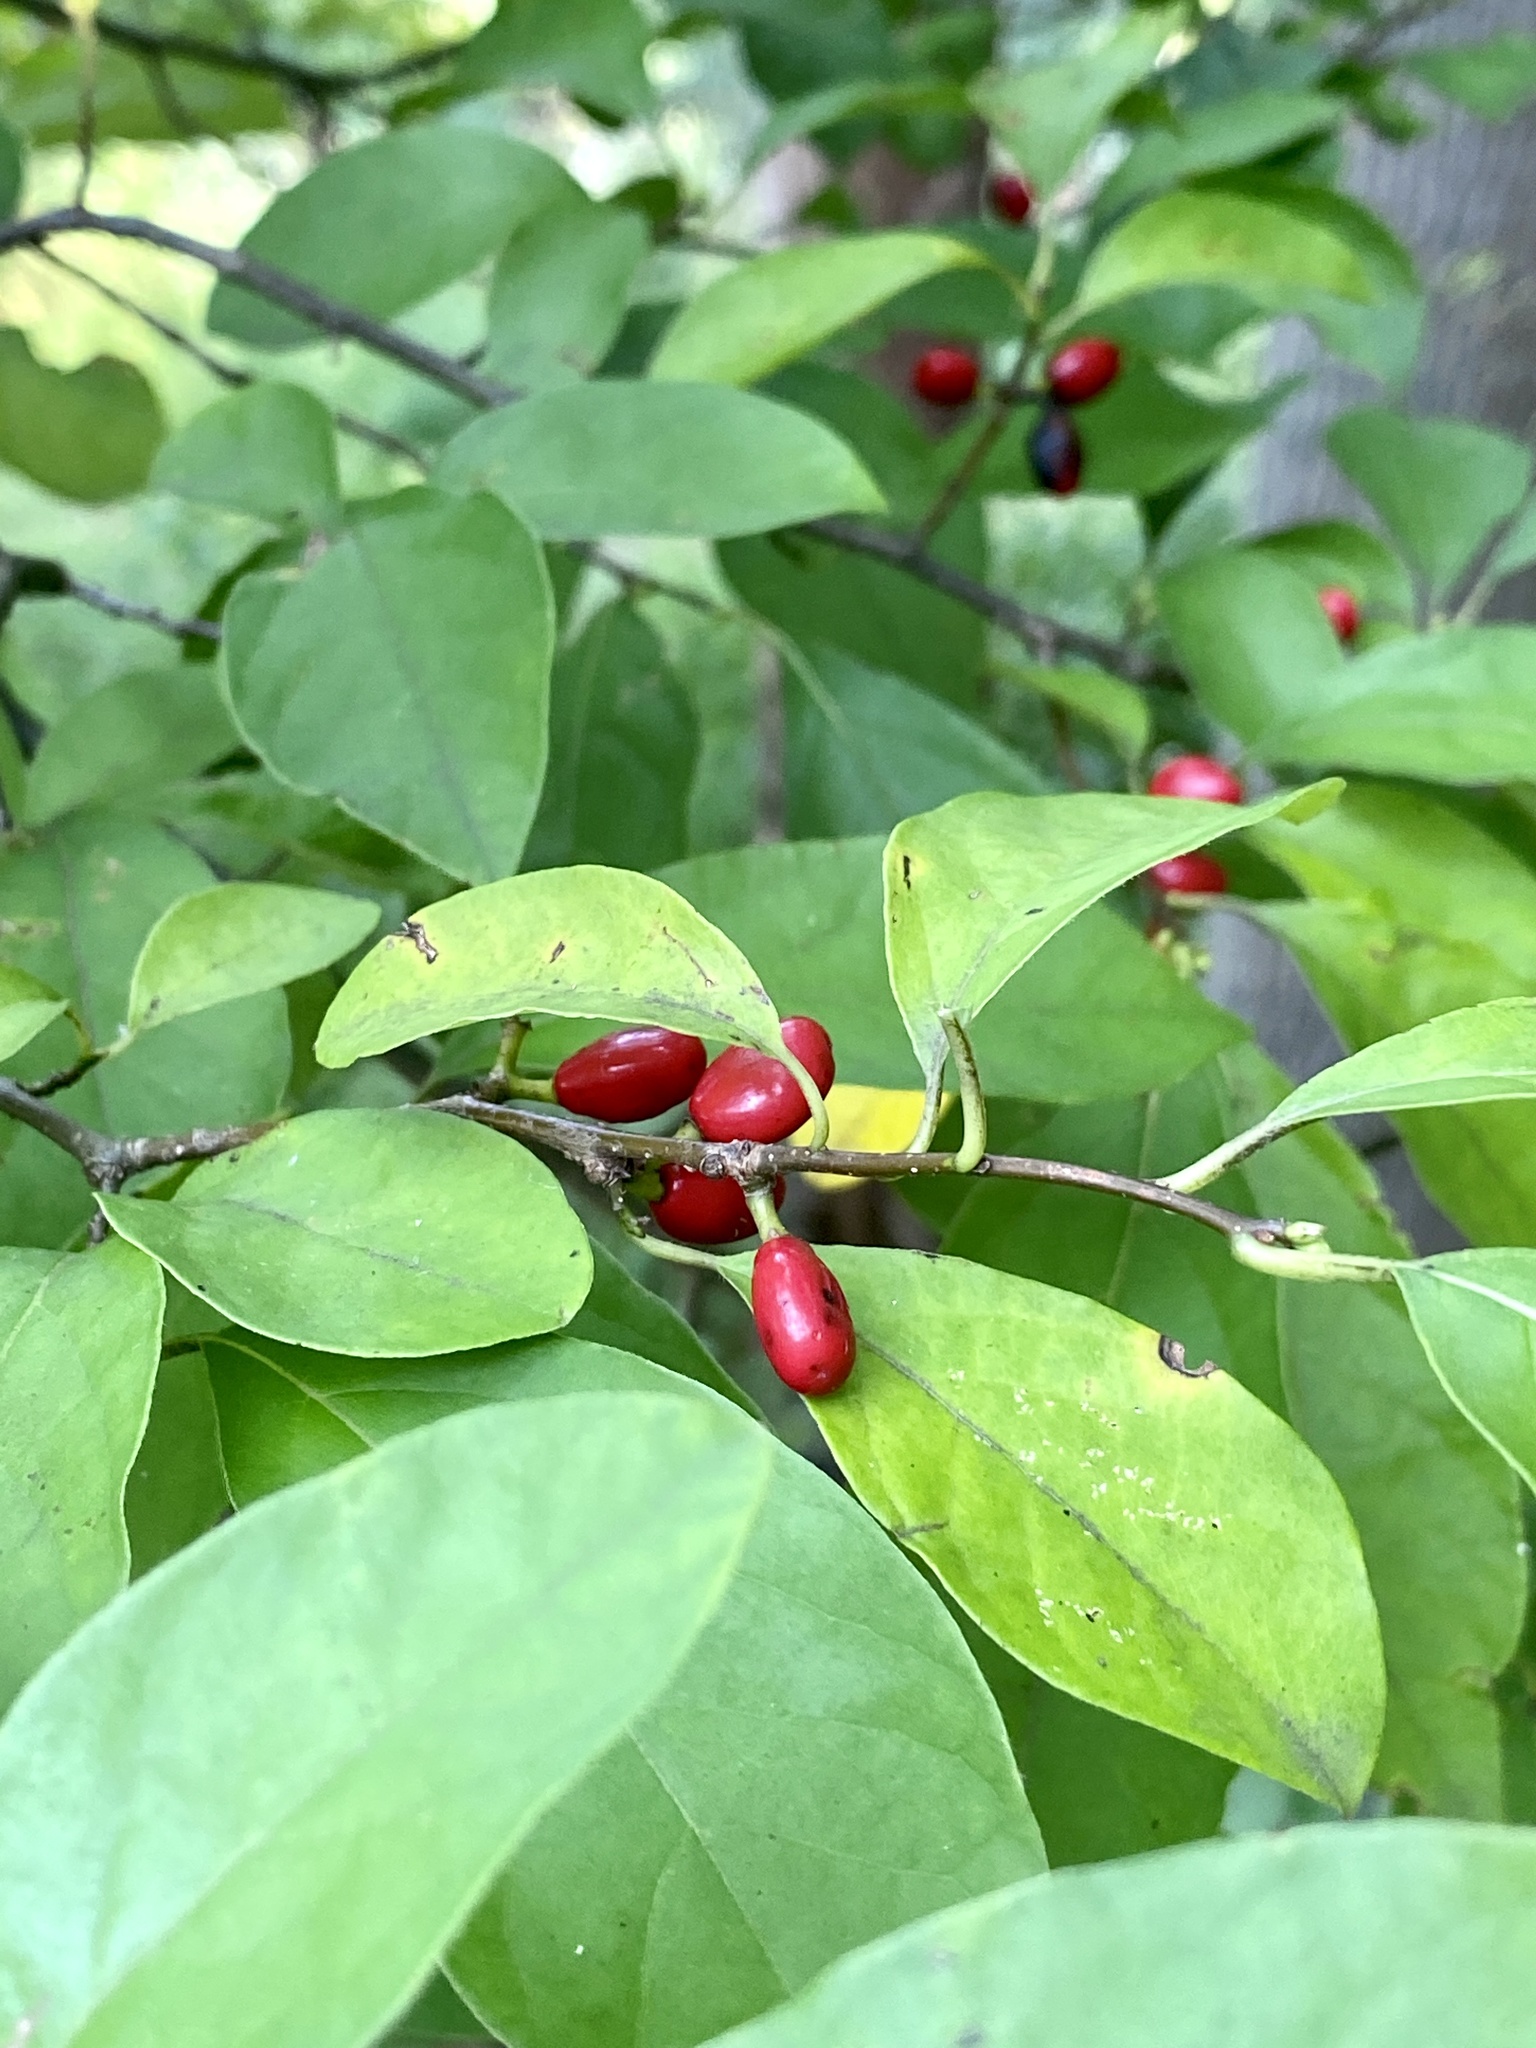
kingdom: Plantae
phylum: Tracheophyta
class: Magnoliopsida
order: Laurales
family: Lauraceae
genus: Lindera
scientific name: Lindera benzoin
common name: Spicebush
